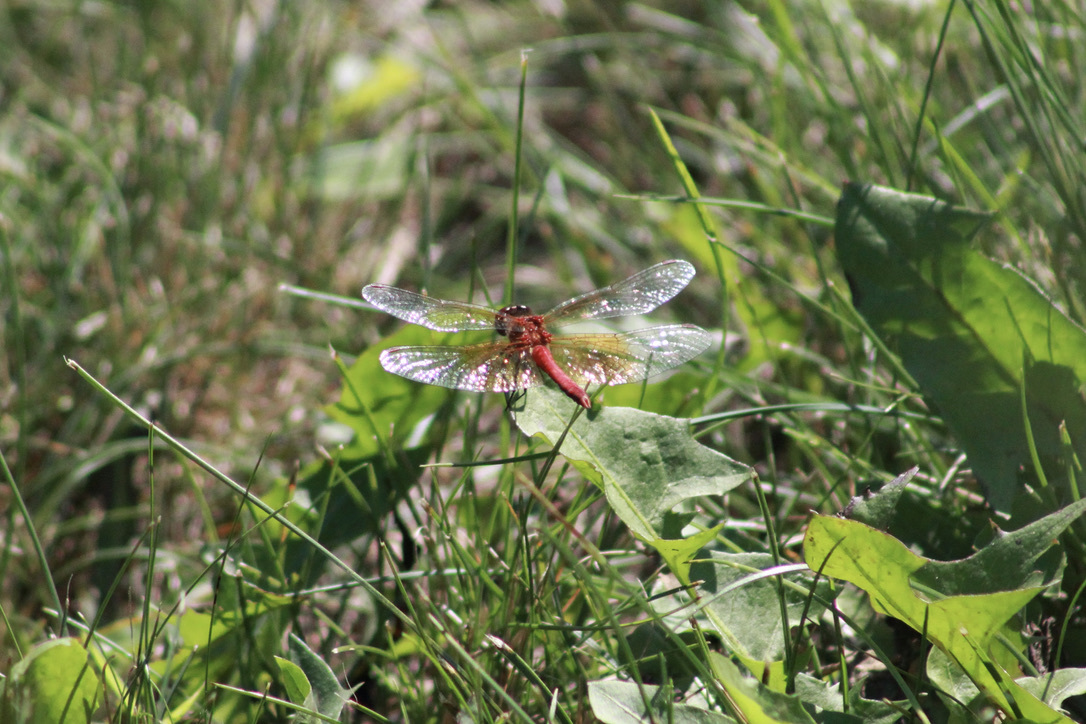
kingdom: Animalia
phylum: Arthropoda
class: Insecta
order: Odonata
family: Libellulidae
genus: Sympetrum
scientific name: Sympetrum semicinctum
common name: Band-winged meadowhawk
